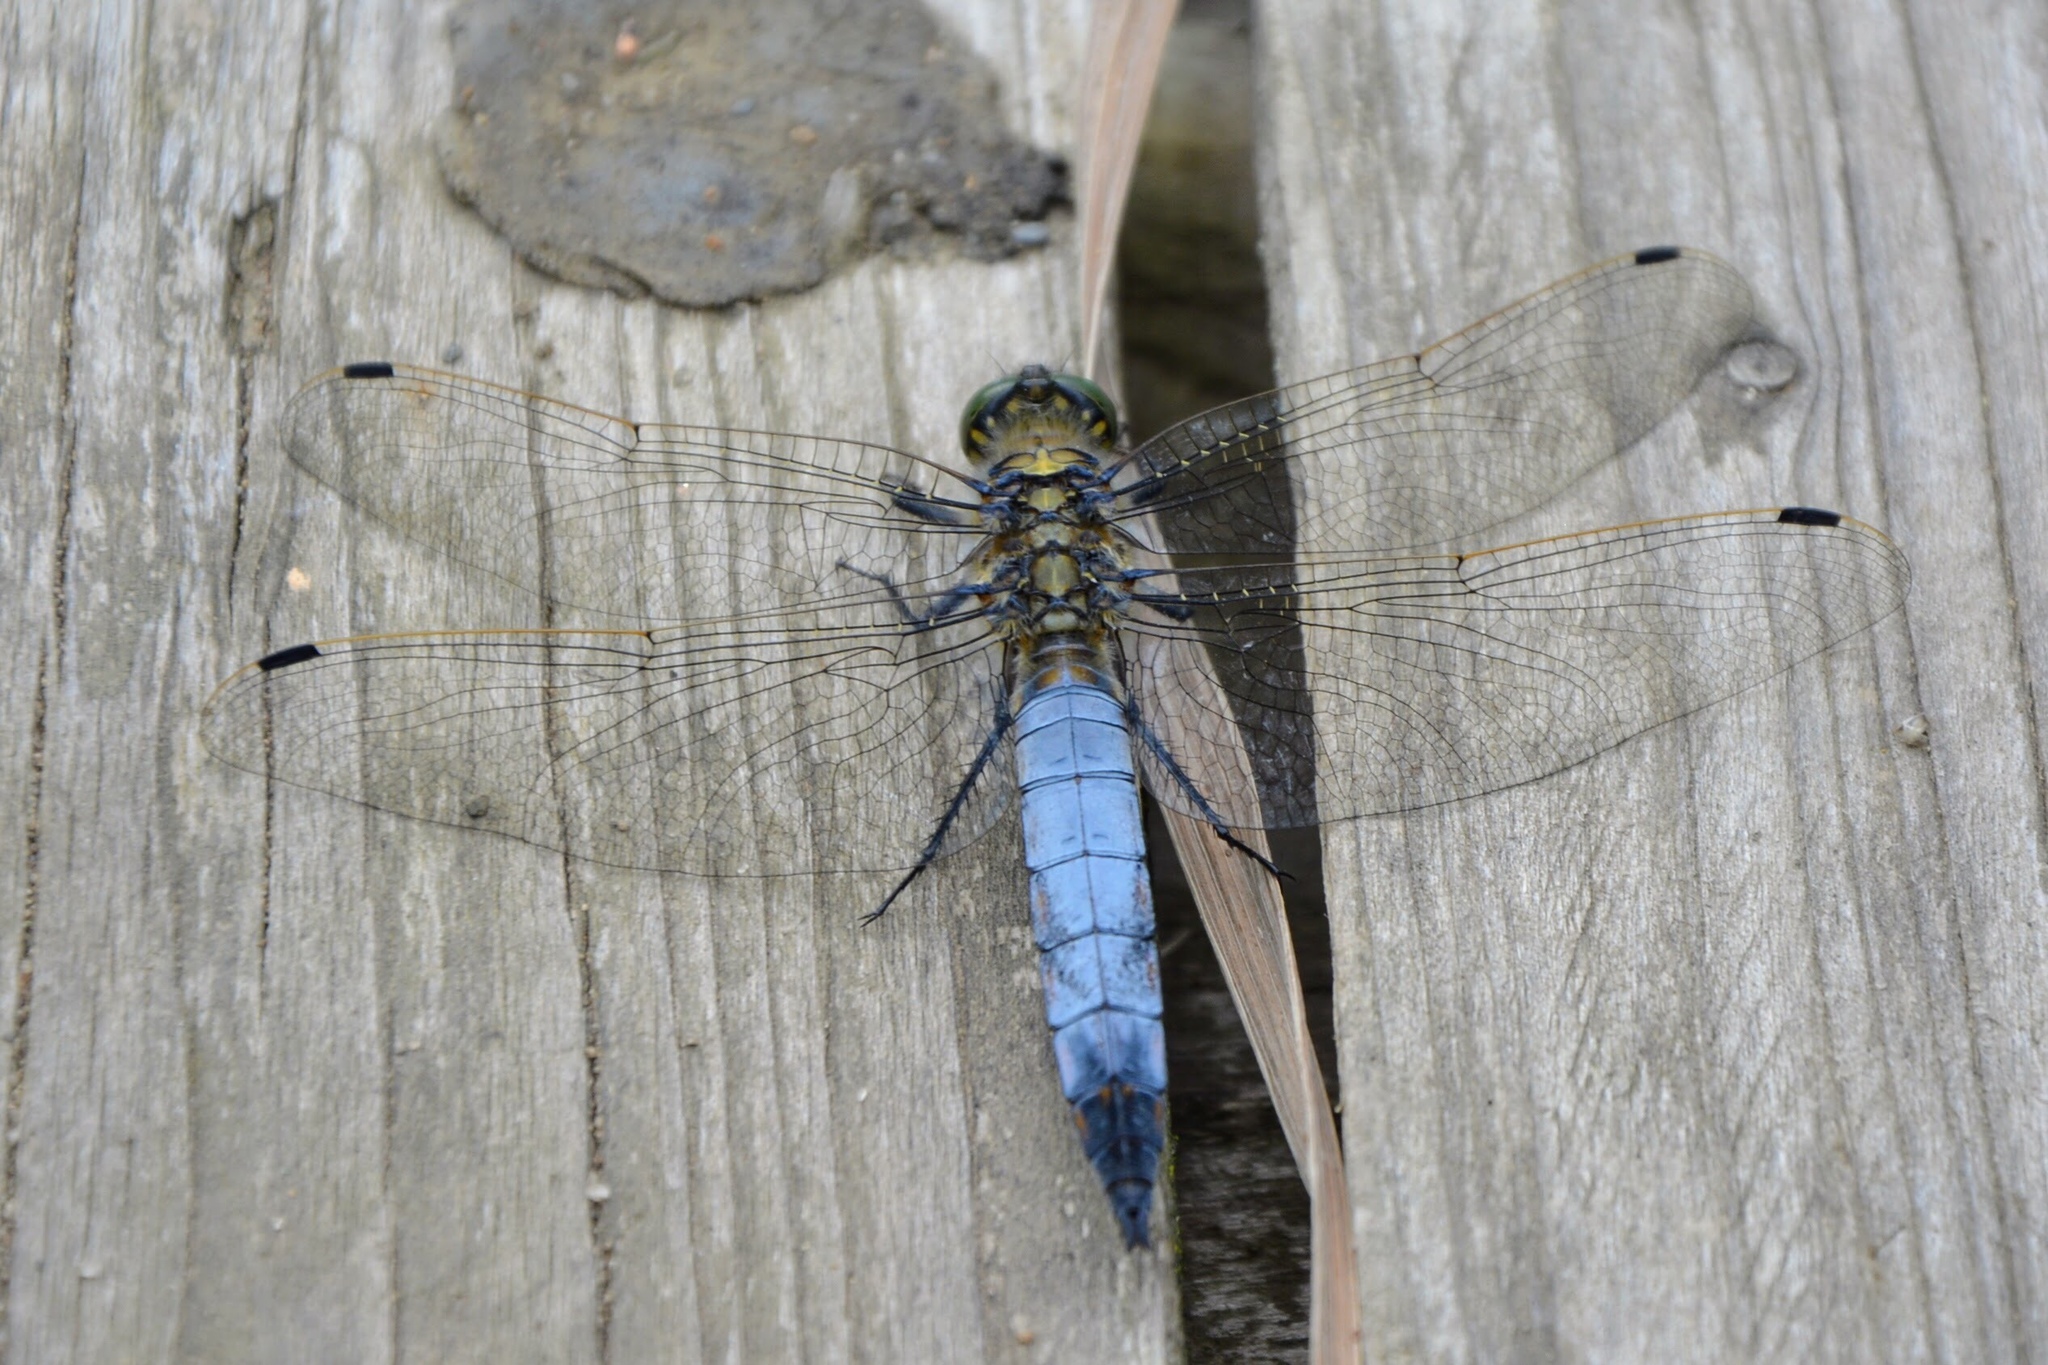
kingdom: Animalia
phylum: Arthropoda
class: Insecta
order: Odonata
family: Libellulidae
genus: Orthetrum
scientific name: Orthetrum cancellatum
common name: Black-tailed skimmer
